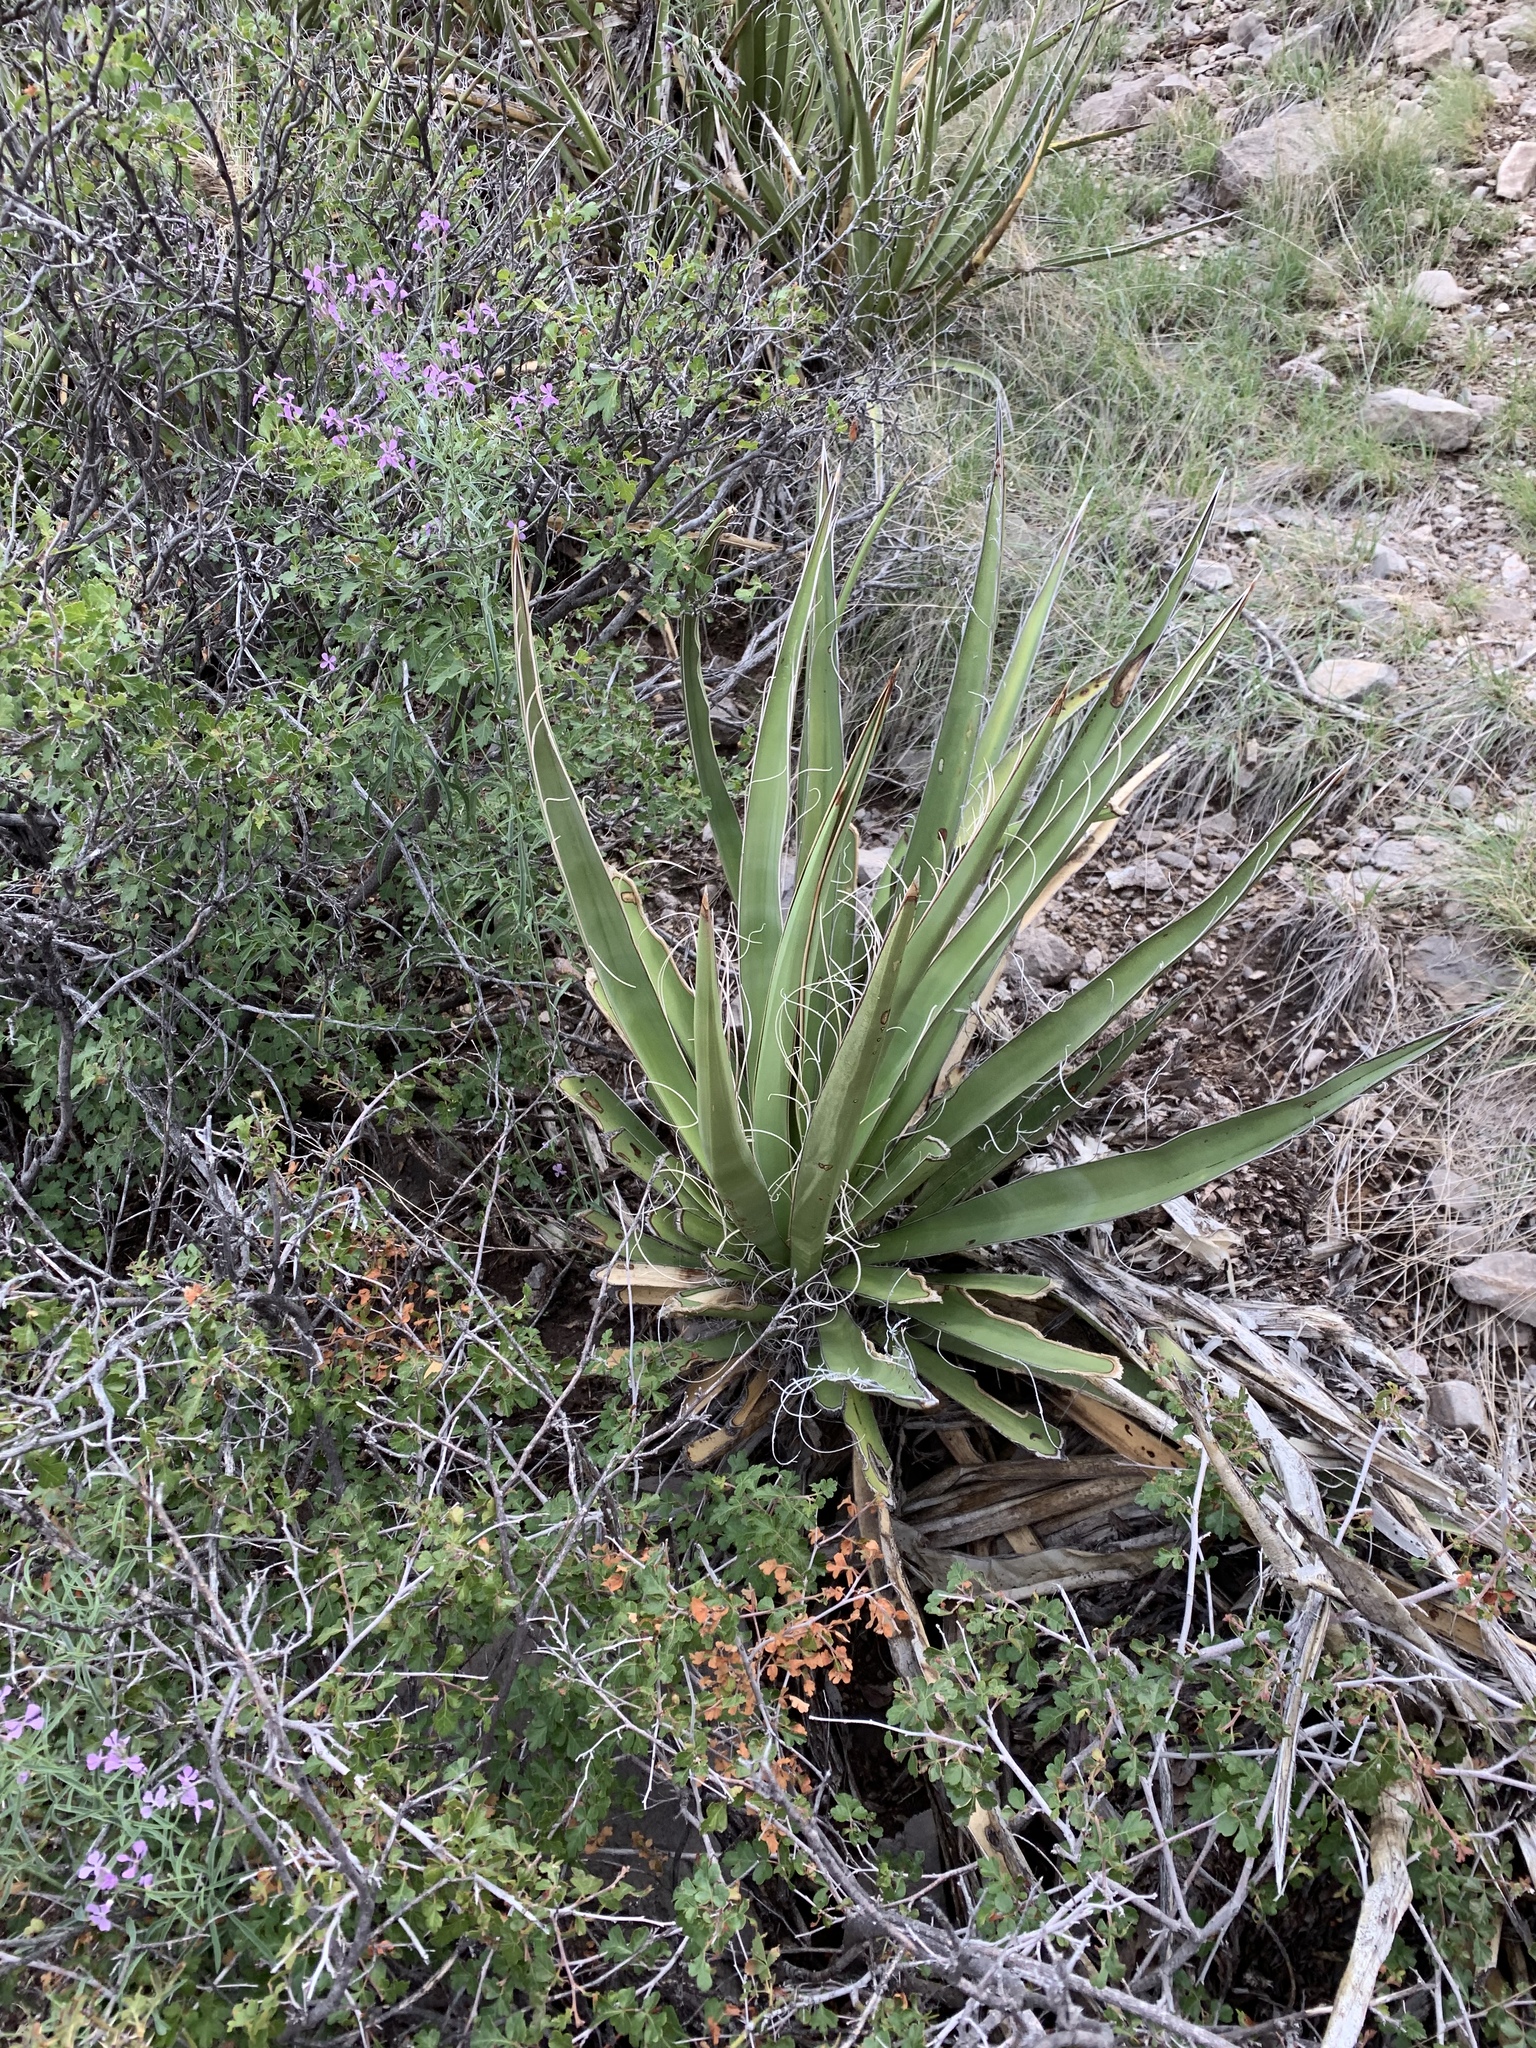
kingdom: Plantae
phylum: Tracheophyta
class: Liliopsida
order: Asparagales
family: Asparagaceae
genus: Yucca
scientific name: Yucca baccata
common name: Banana yucca
